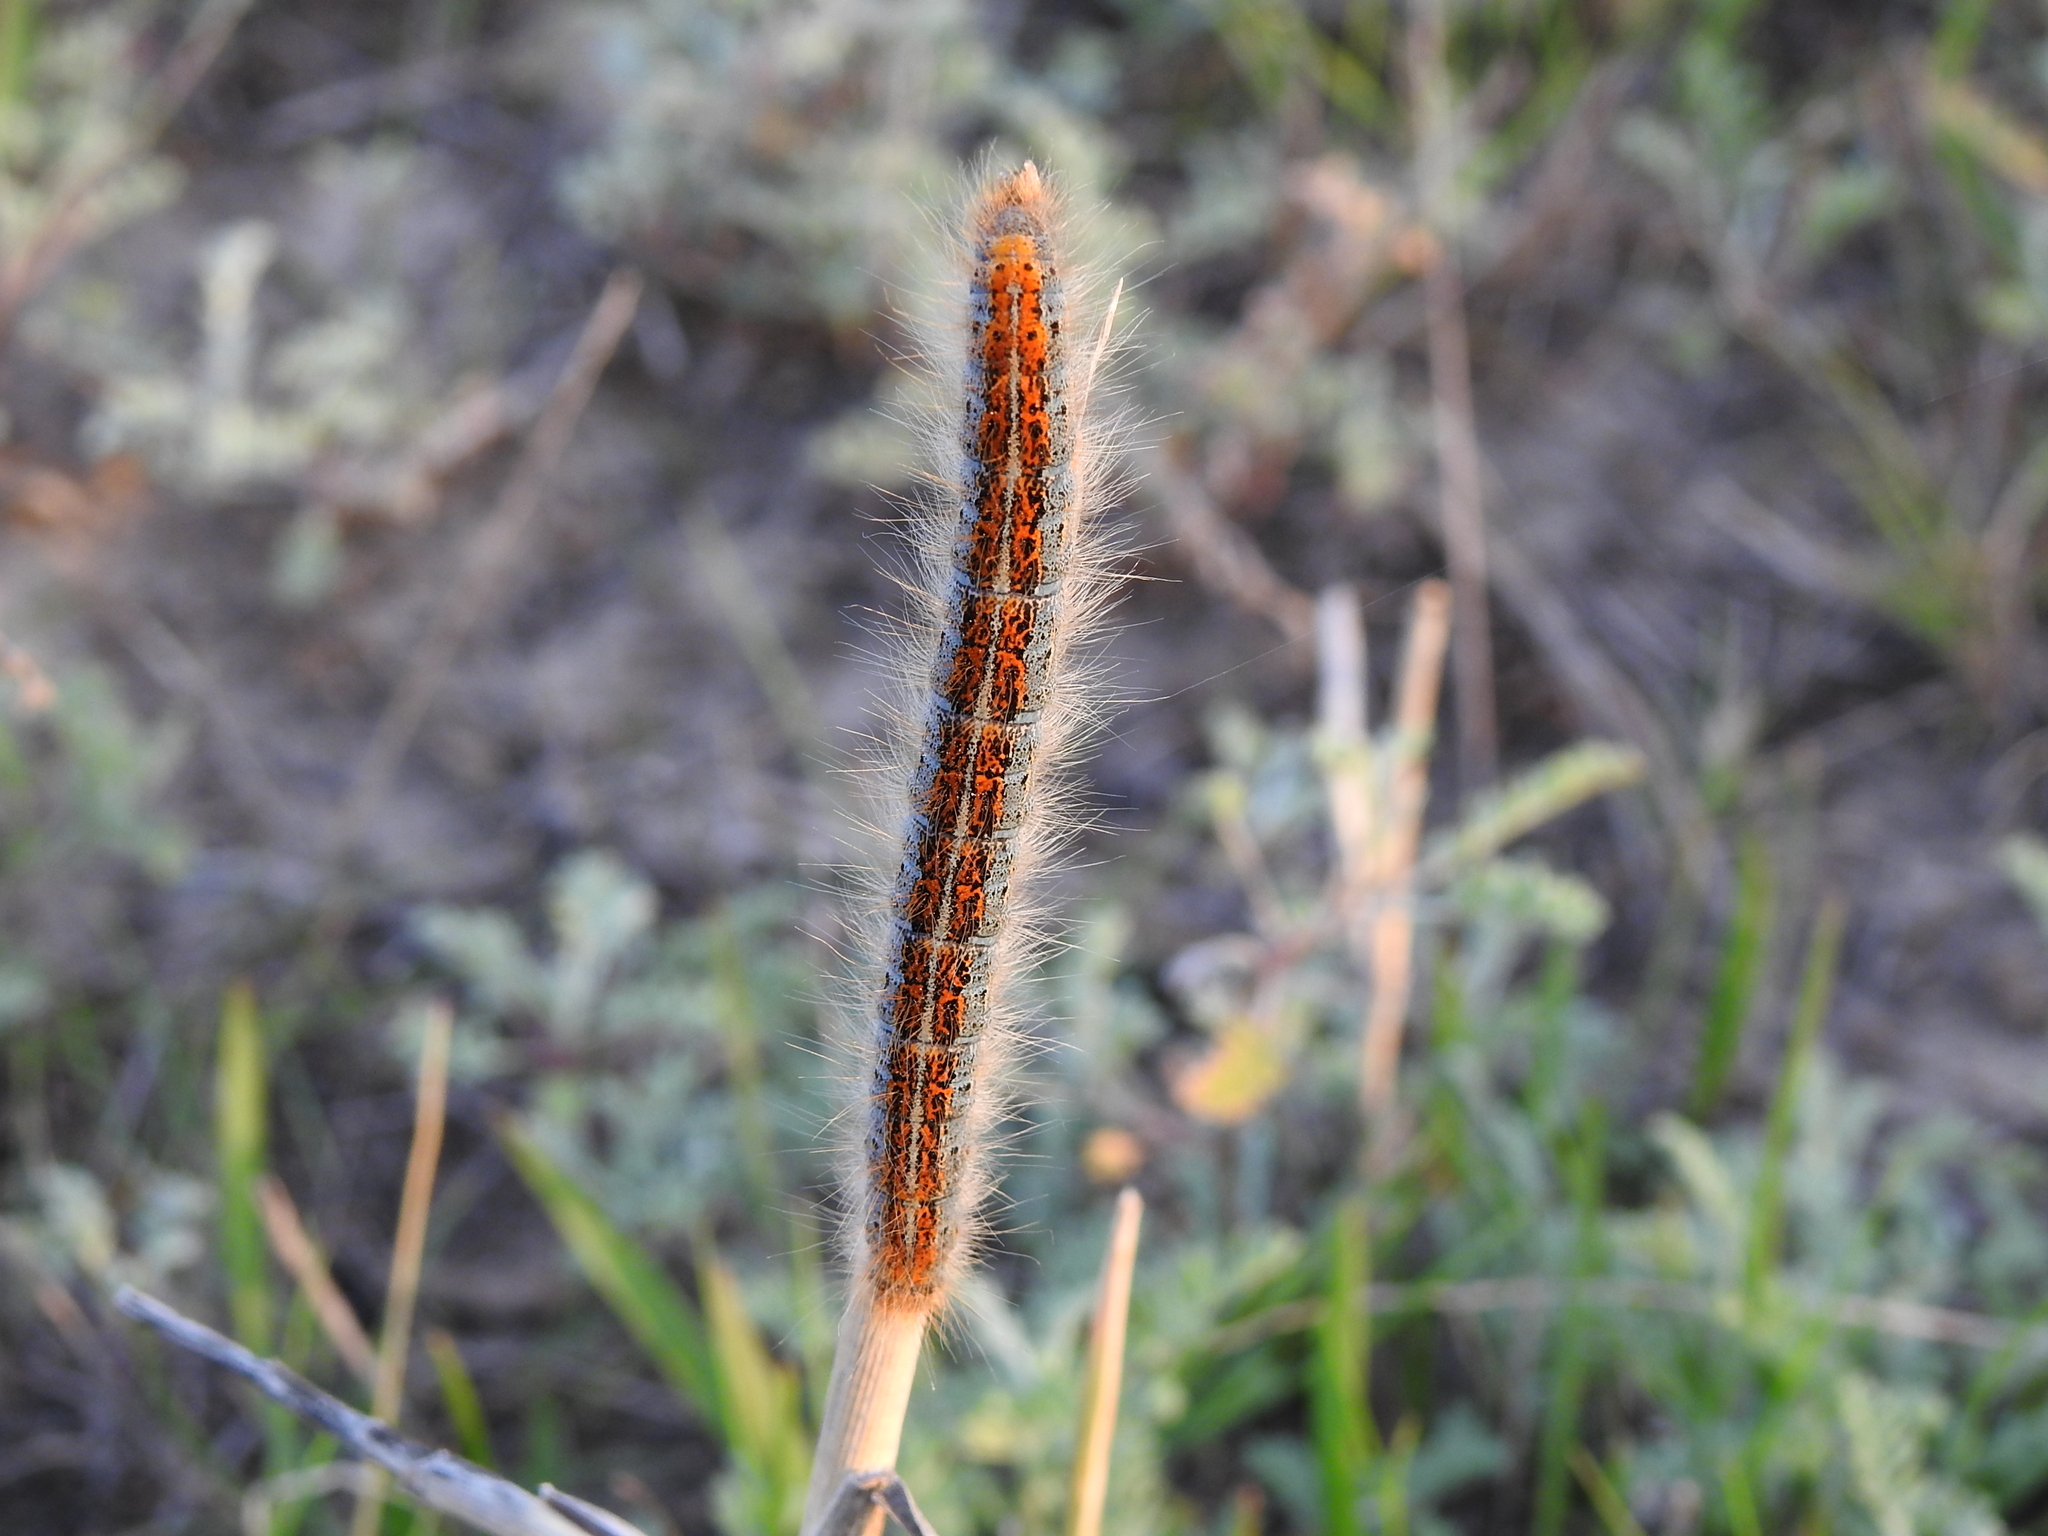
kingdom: Animalia
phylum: Arthropoda
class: Insecta
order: Lepidoptera
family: Lasiocampidae
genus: Malacosoma
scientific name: Malacosoma castrense
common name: Ground lackey
